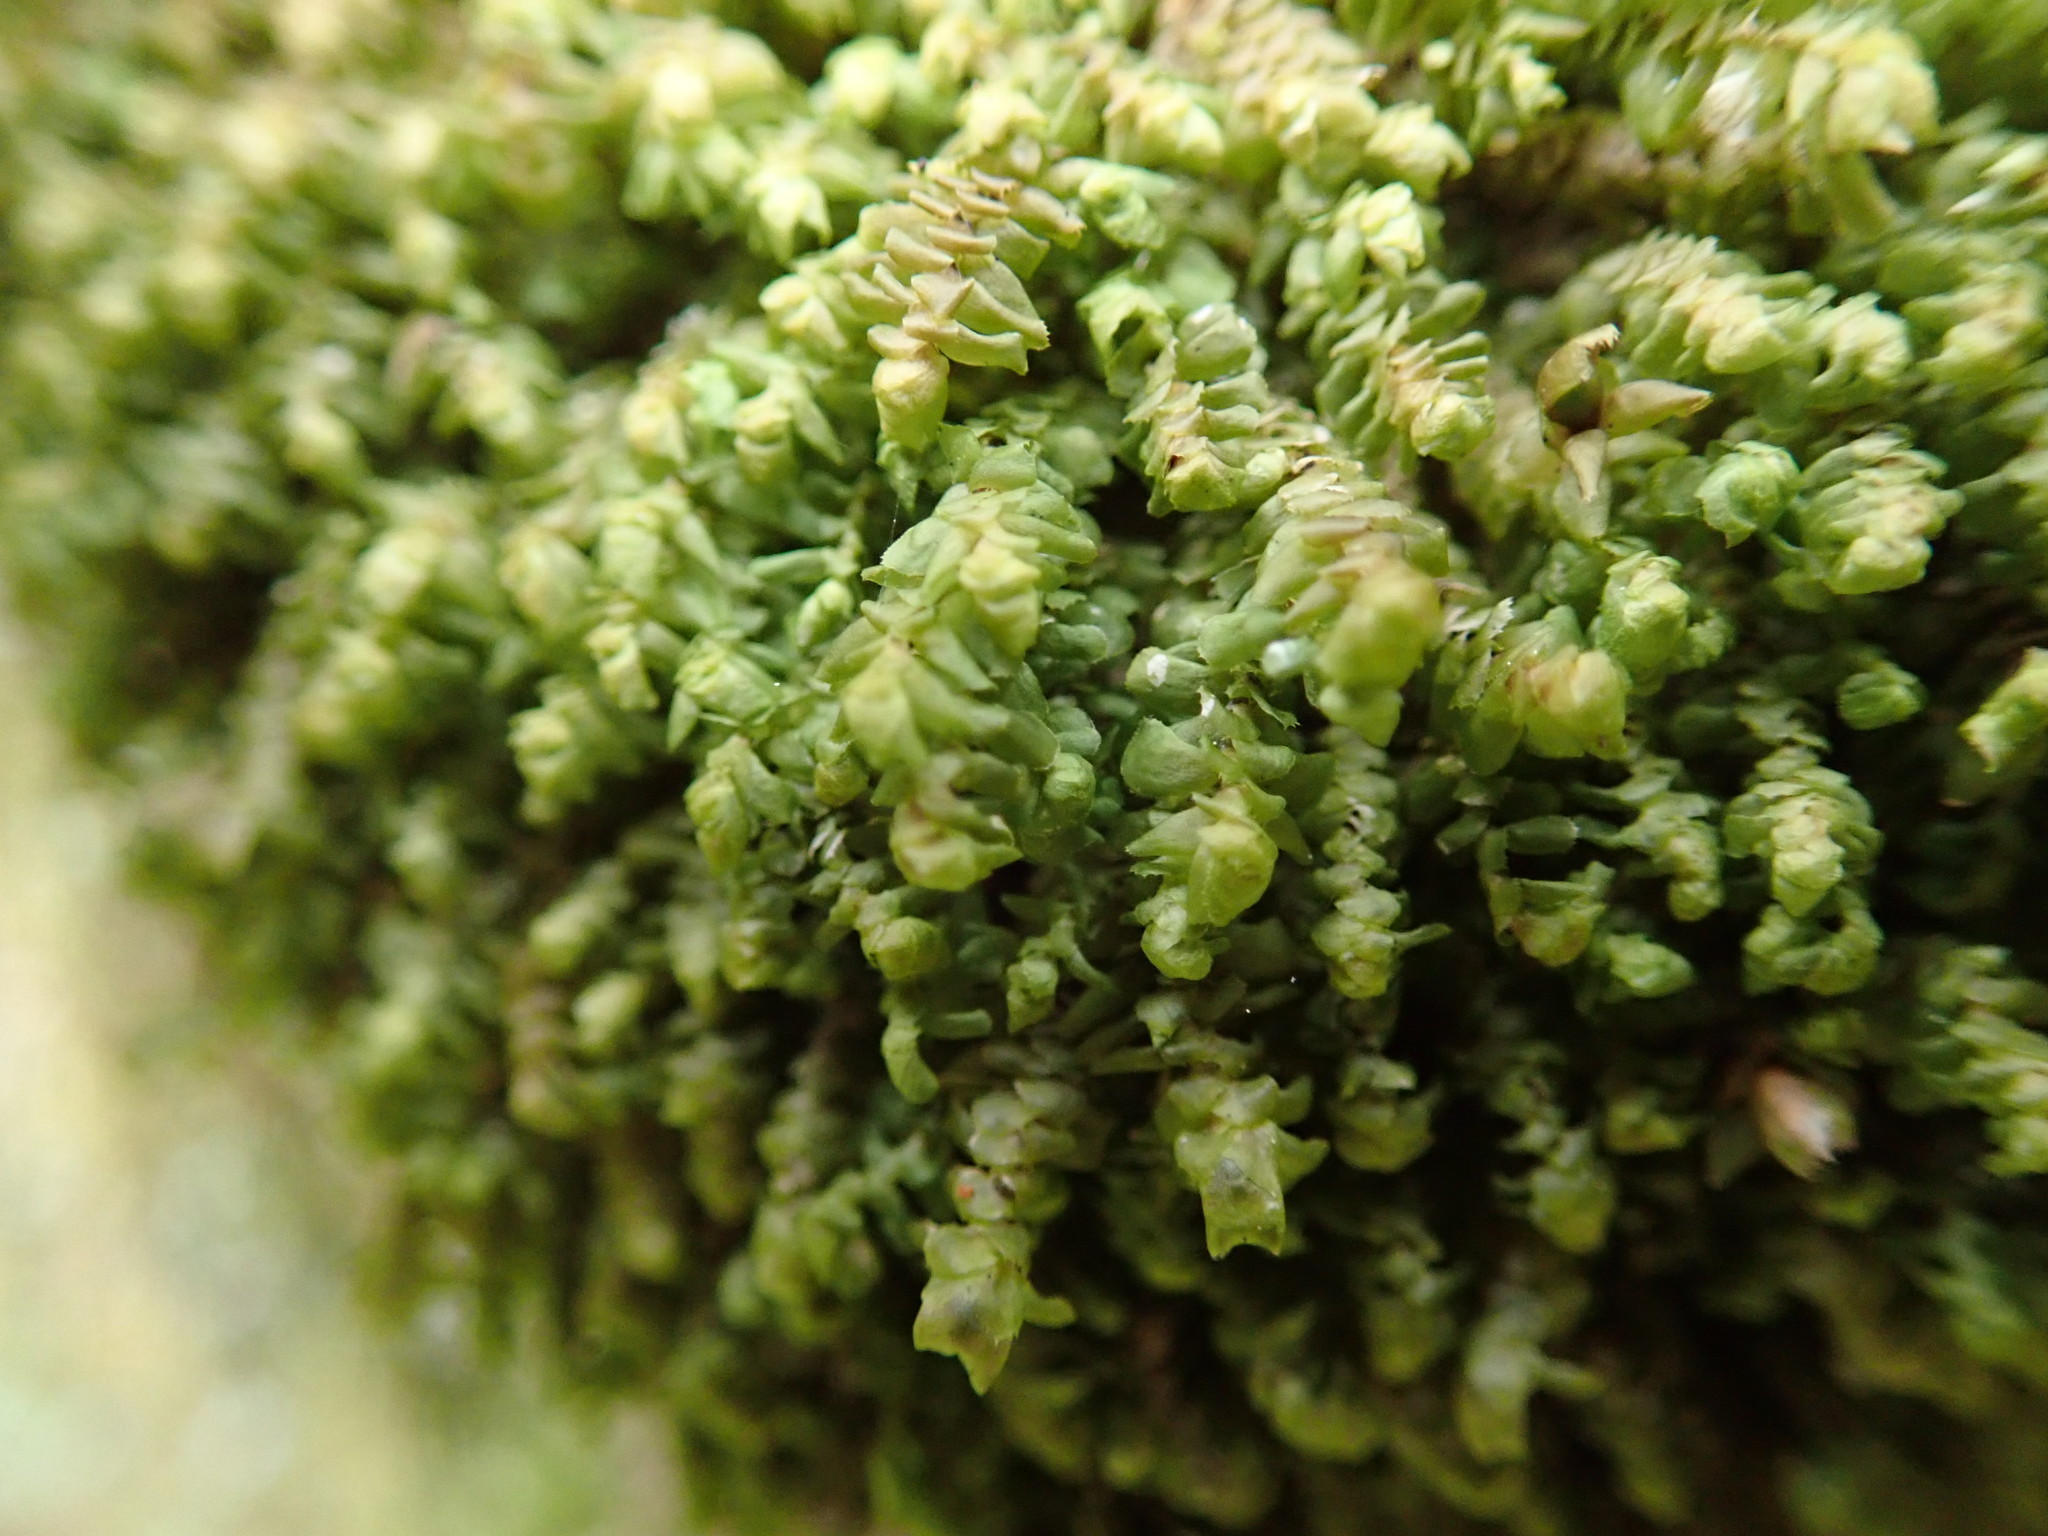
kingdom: Plantae
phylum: Marchantiophyta
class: Jungermanniopsida
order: Jungermanniales
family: Scapaniaceae
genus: Scapania
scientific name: Scapania bolanderi
